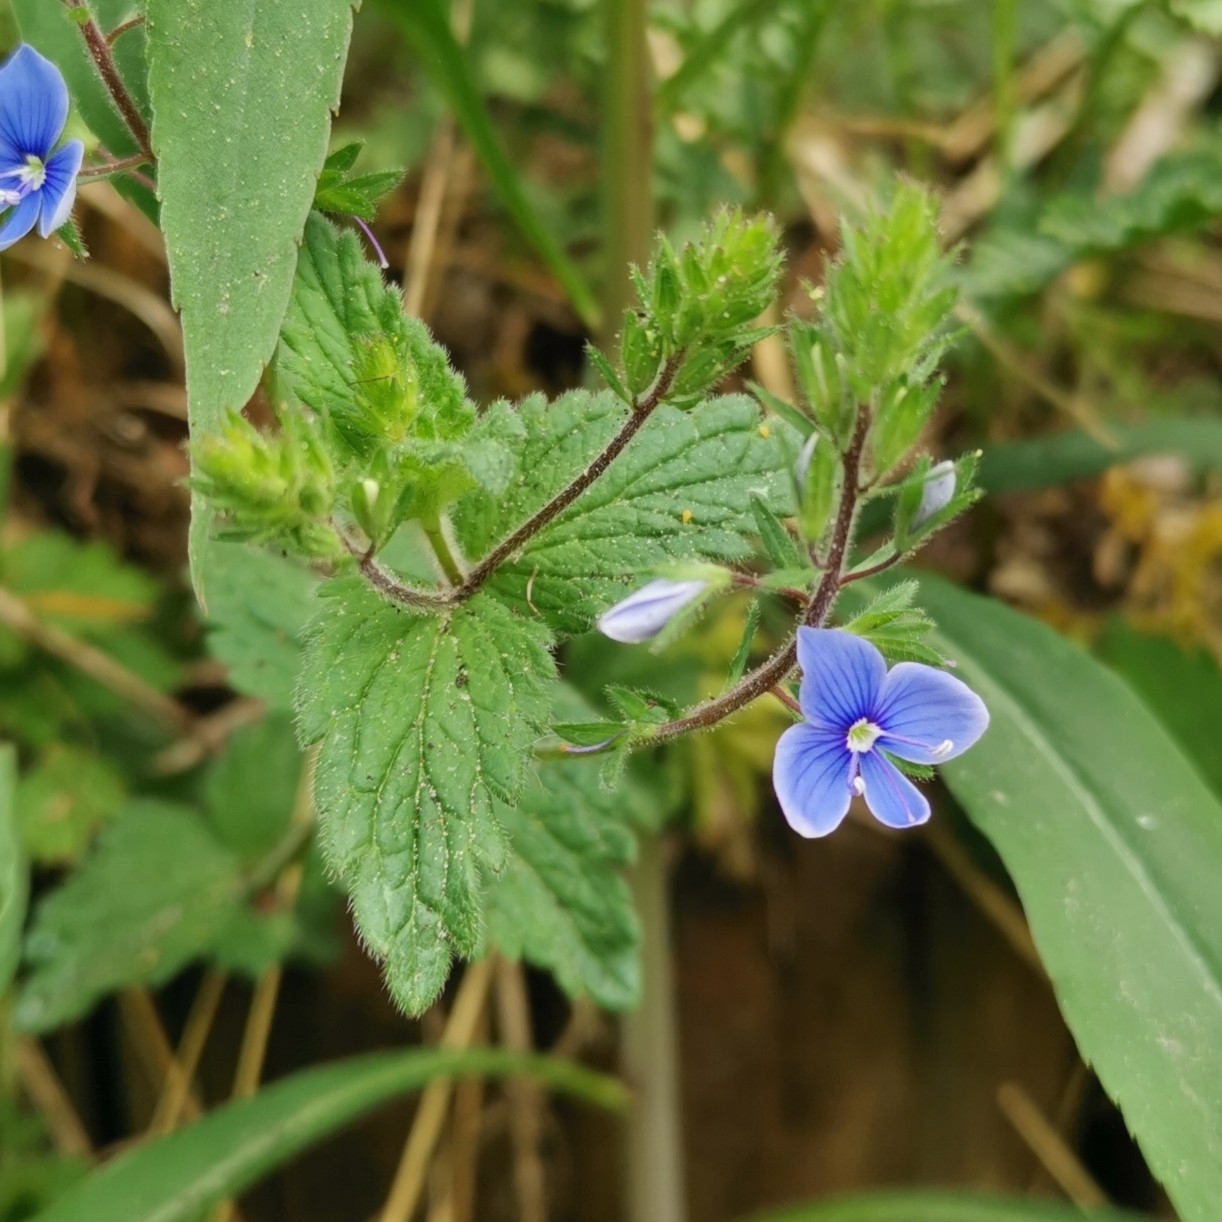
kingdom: Plantae
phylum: Tracheophyta
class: Magnoliopsida
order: Lamiales
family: Plantaginaceae
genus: Veronica
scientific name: Veronica chamaedrys
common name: Germander speedwell
